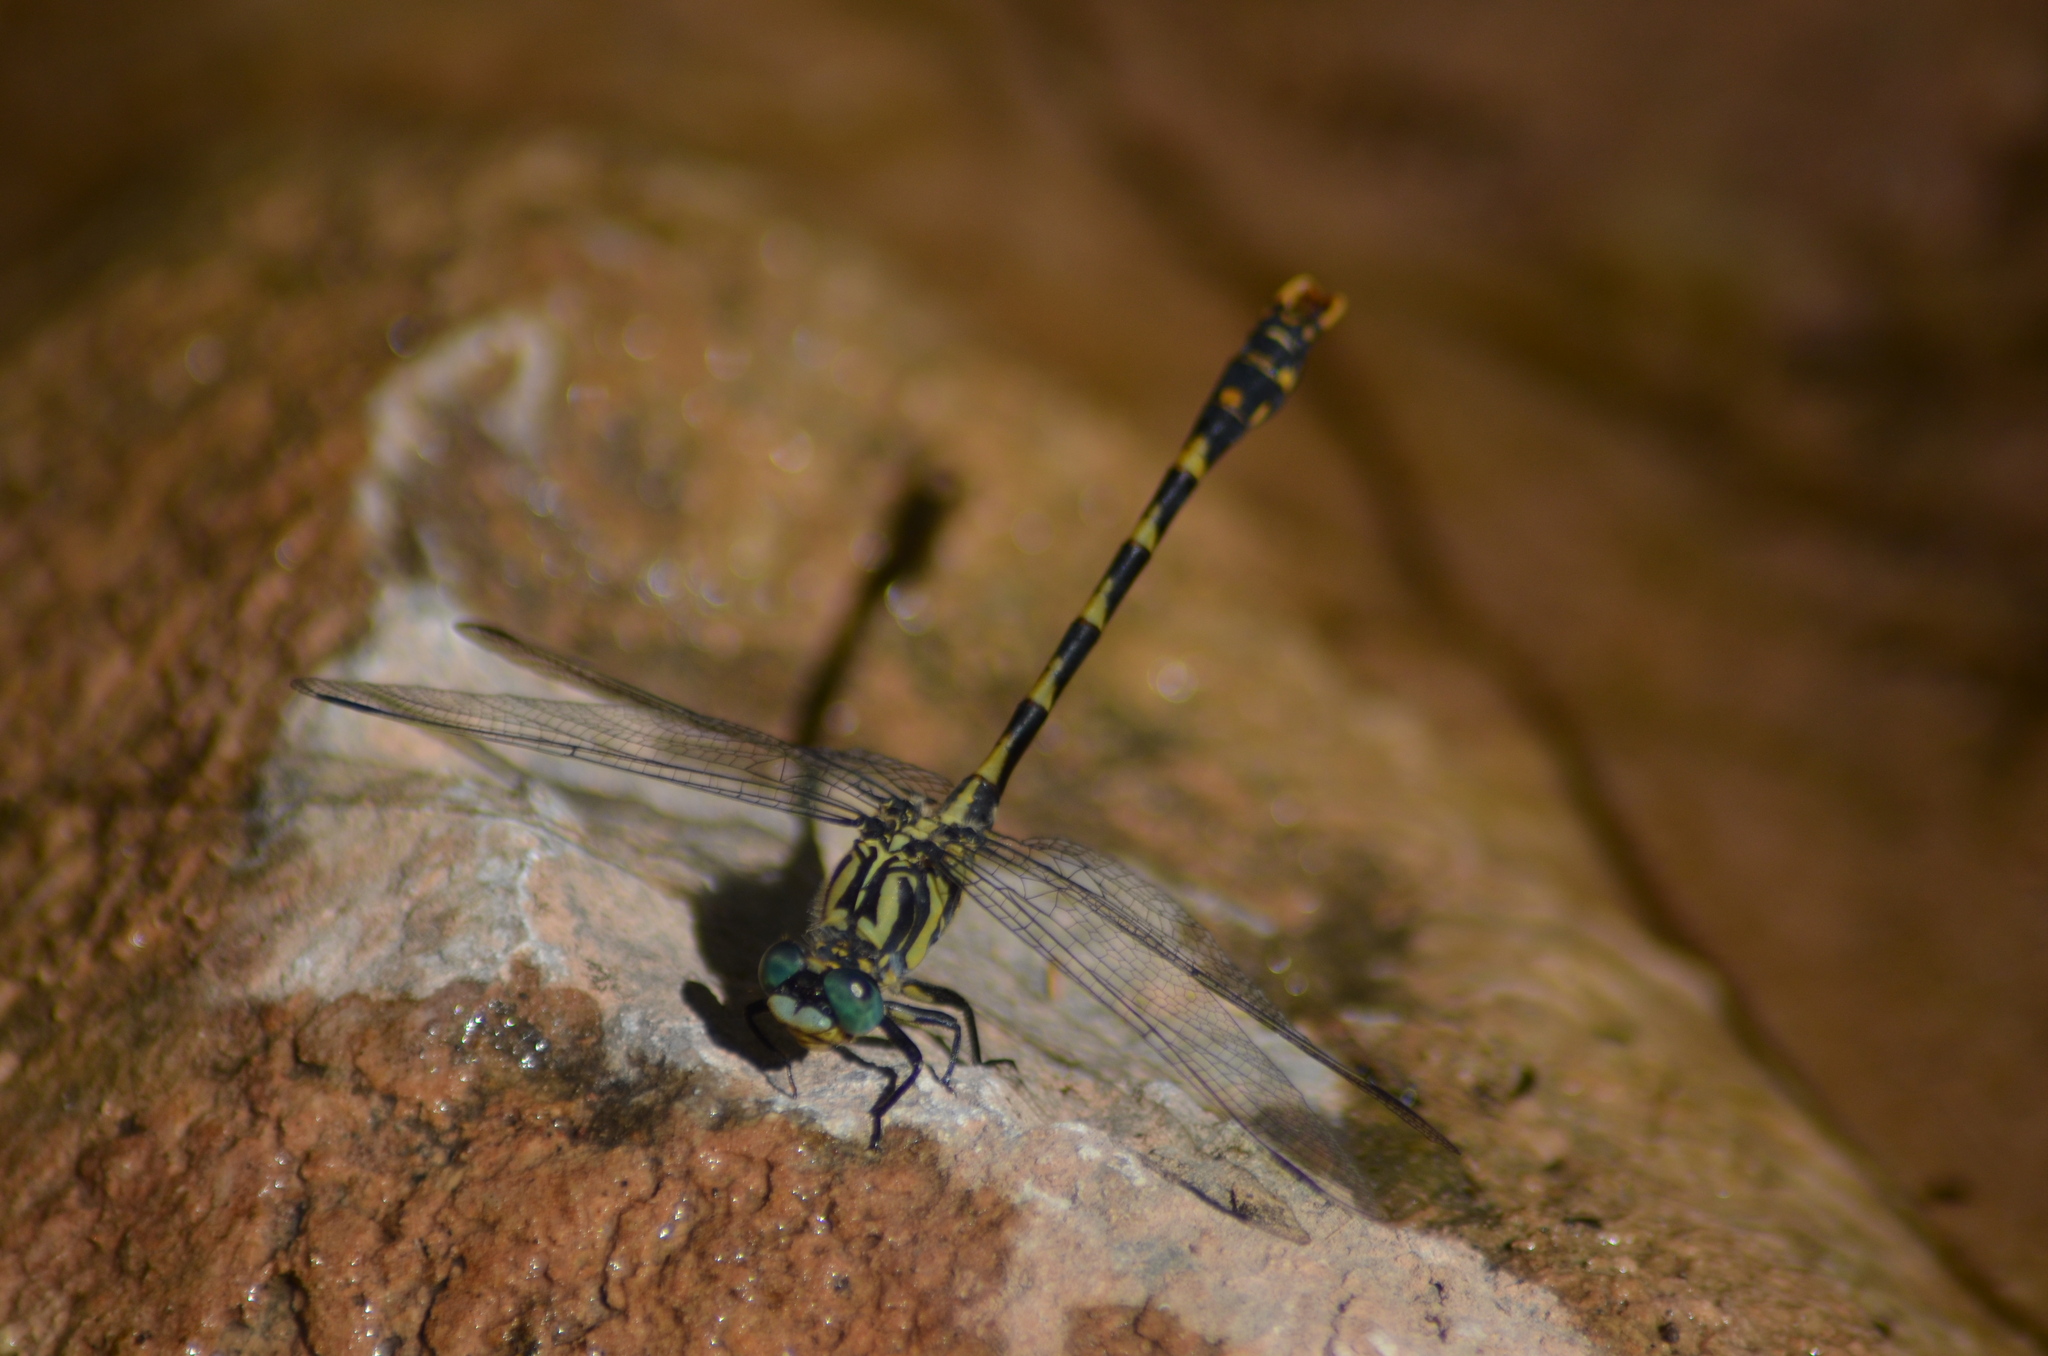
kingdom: Animalia
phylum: Arthropoda
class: Insecta
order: Odonata
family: Gomphidae
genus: Onychogomphus
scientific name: Onychogomphus uncatus
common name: Large pincertail
